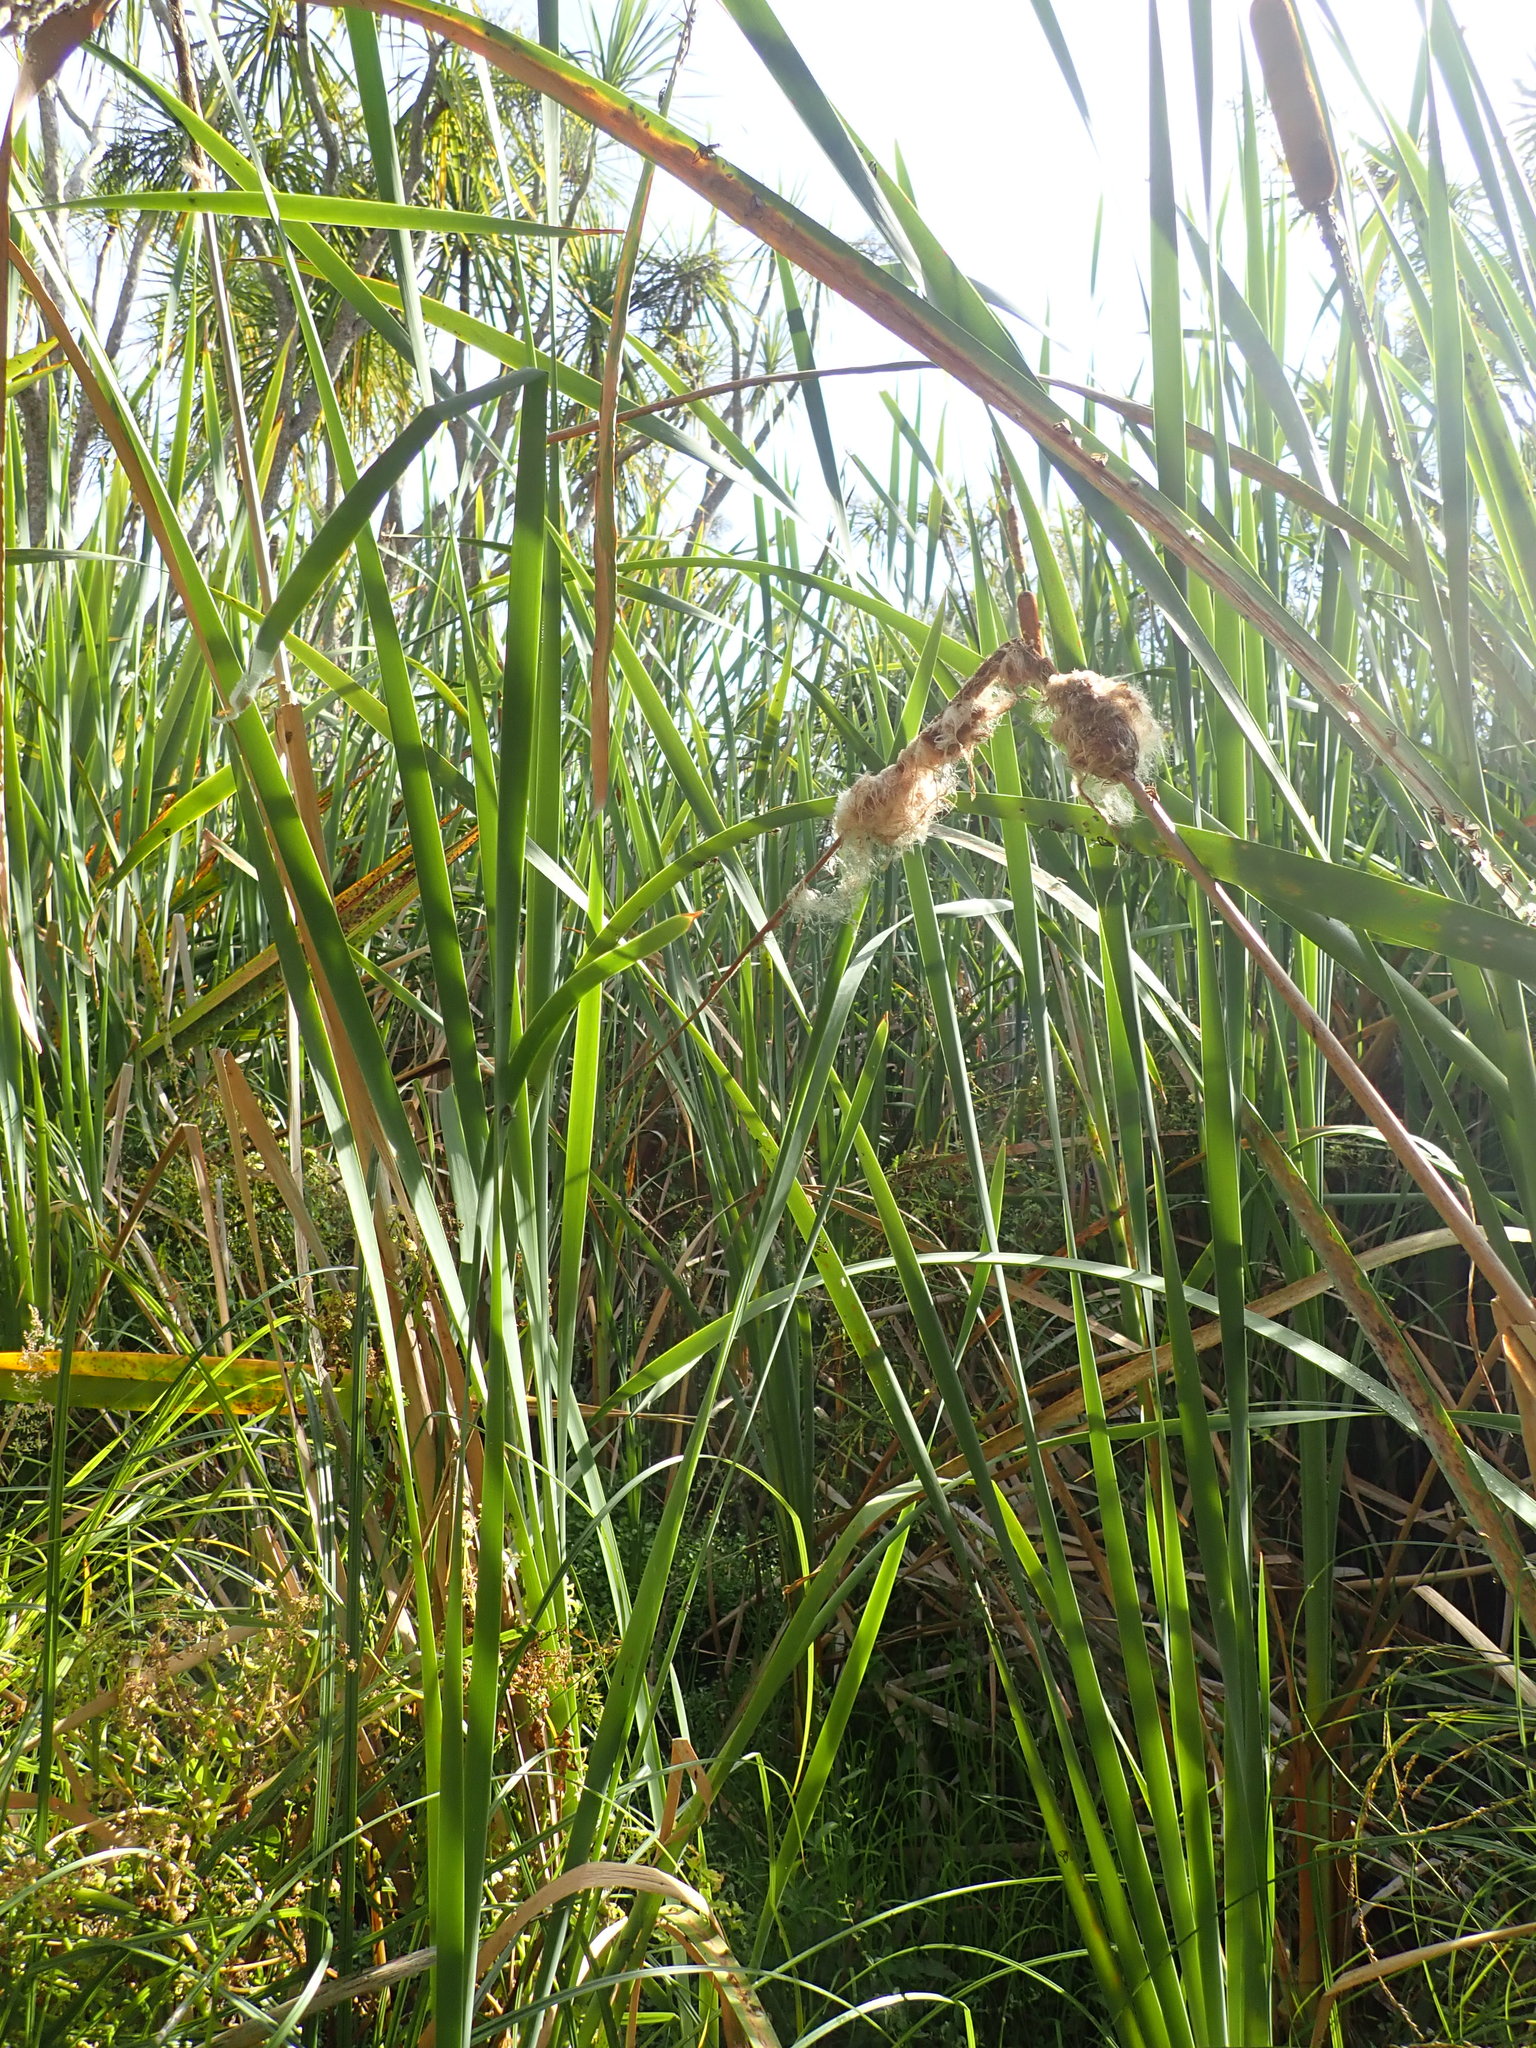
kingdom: Plantae
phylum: Tracheophyta
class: Liliopsida
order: Poales
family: Typhaceae
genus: Typha
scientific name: Typha orientalis
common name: Bullrush
